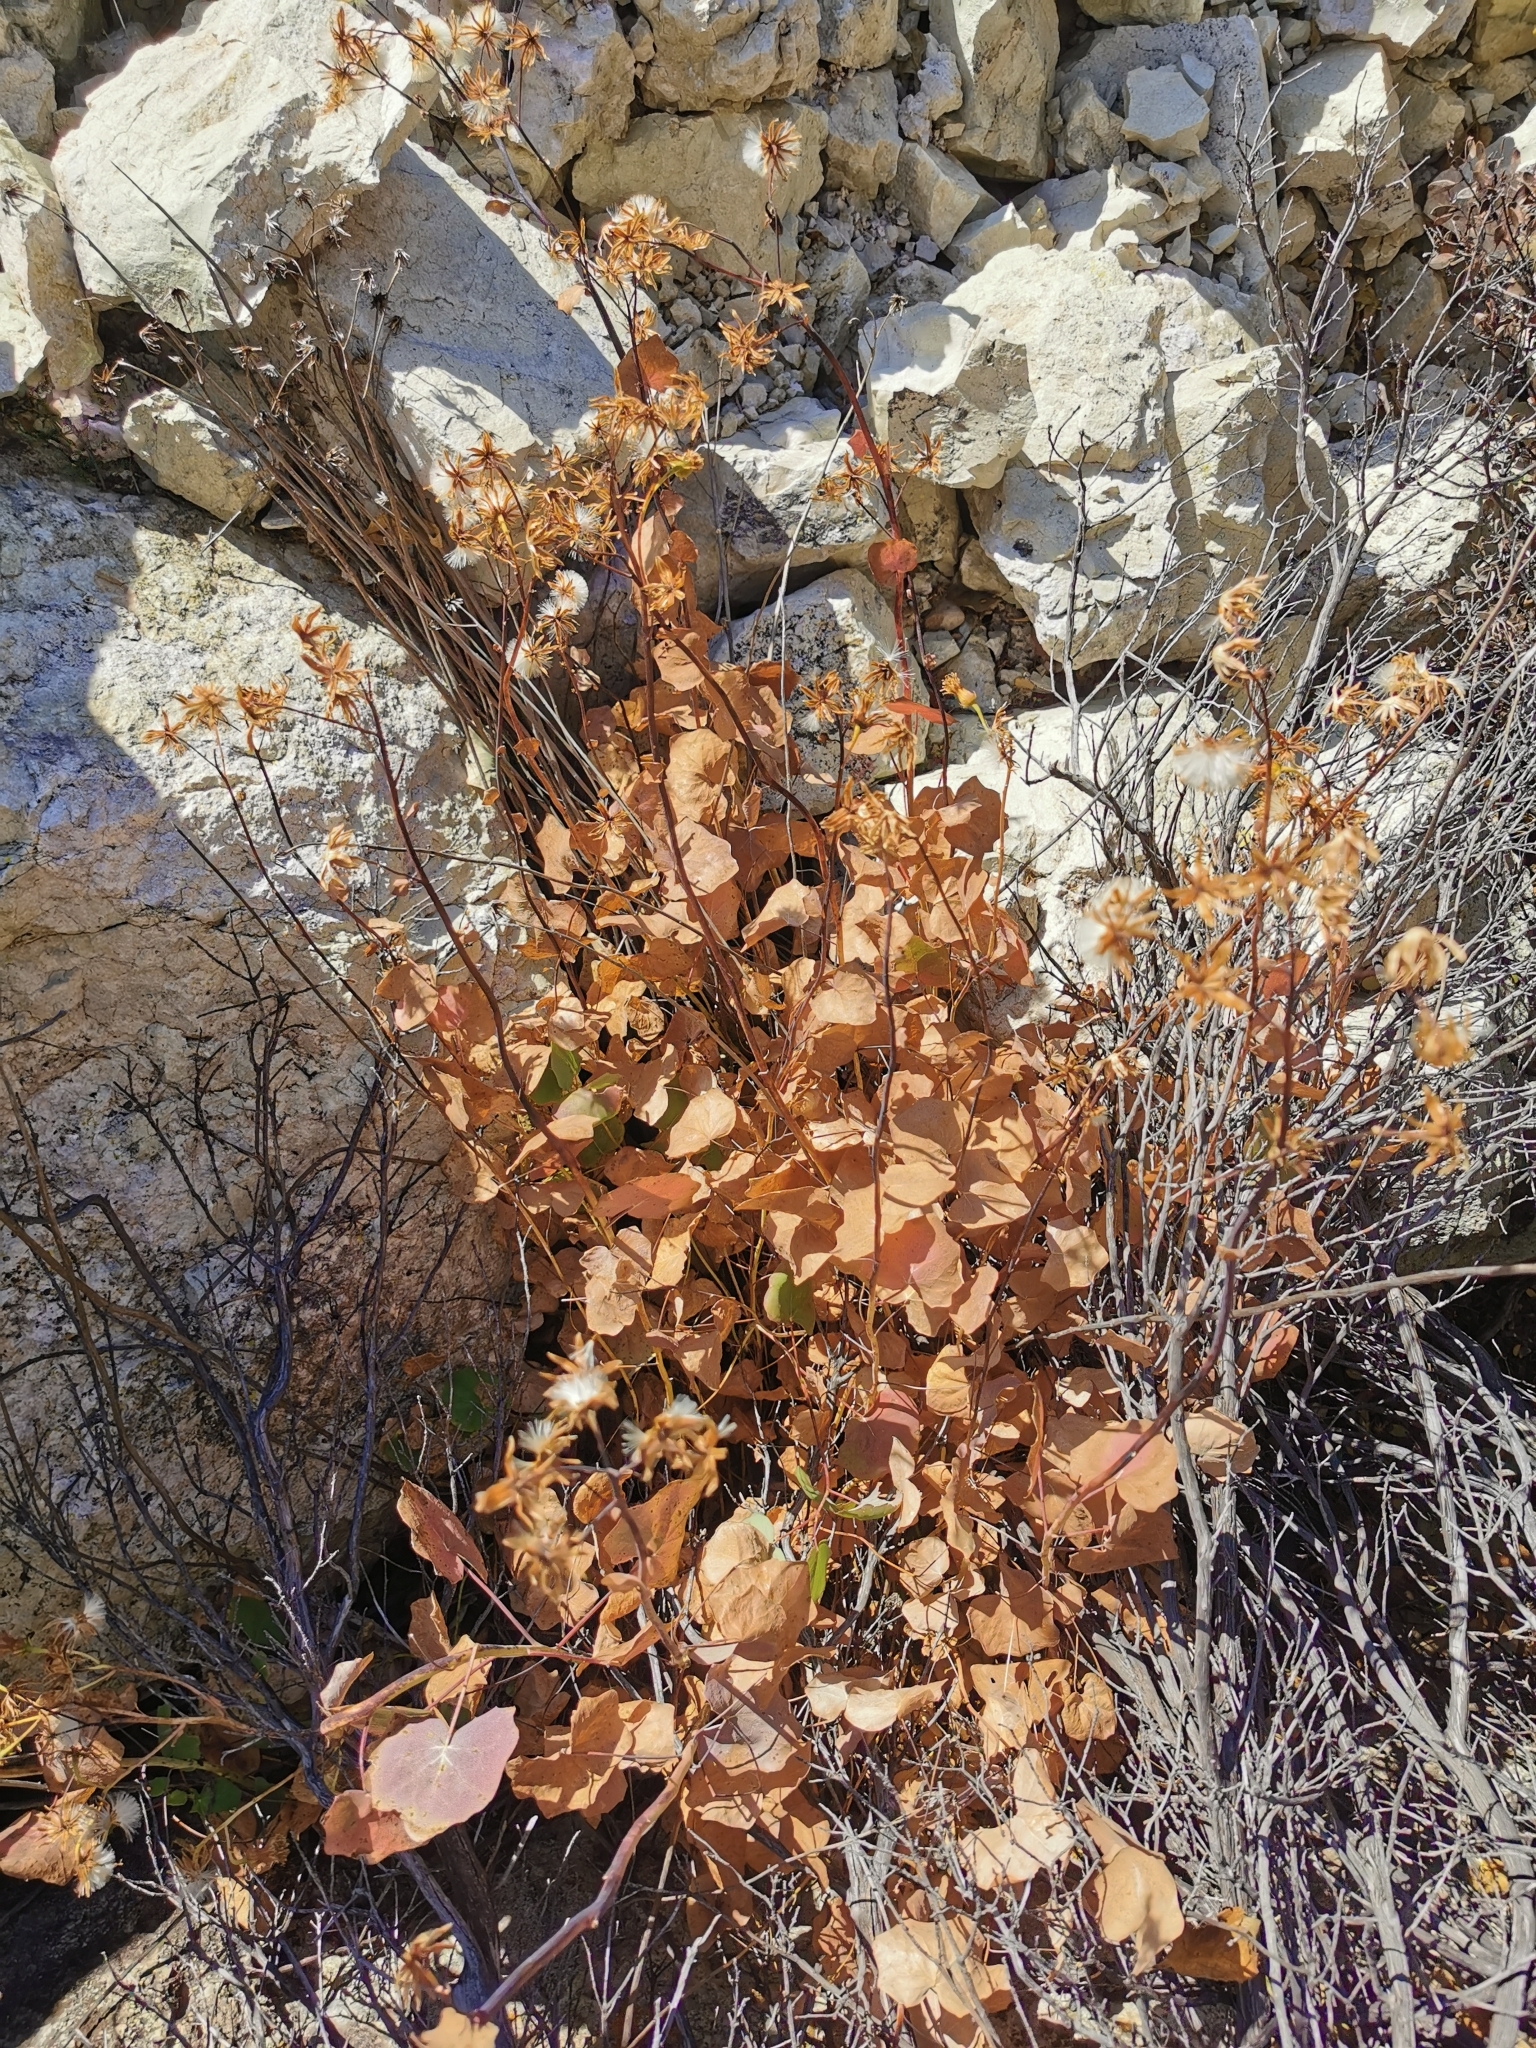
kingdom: Plantae
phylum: Tracheophyta
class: Magnoliopsida
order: Asterales
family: Asteraceae
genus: Roldana
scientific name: Roldana sessilifolia
